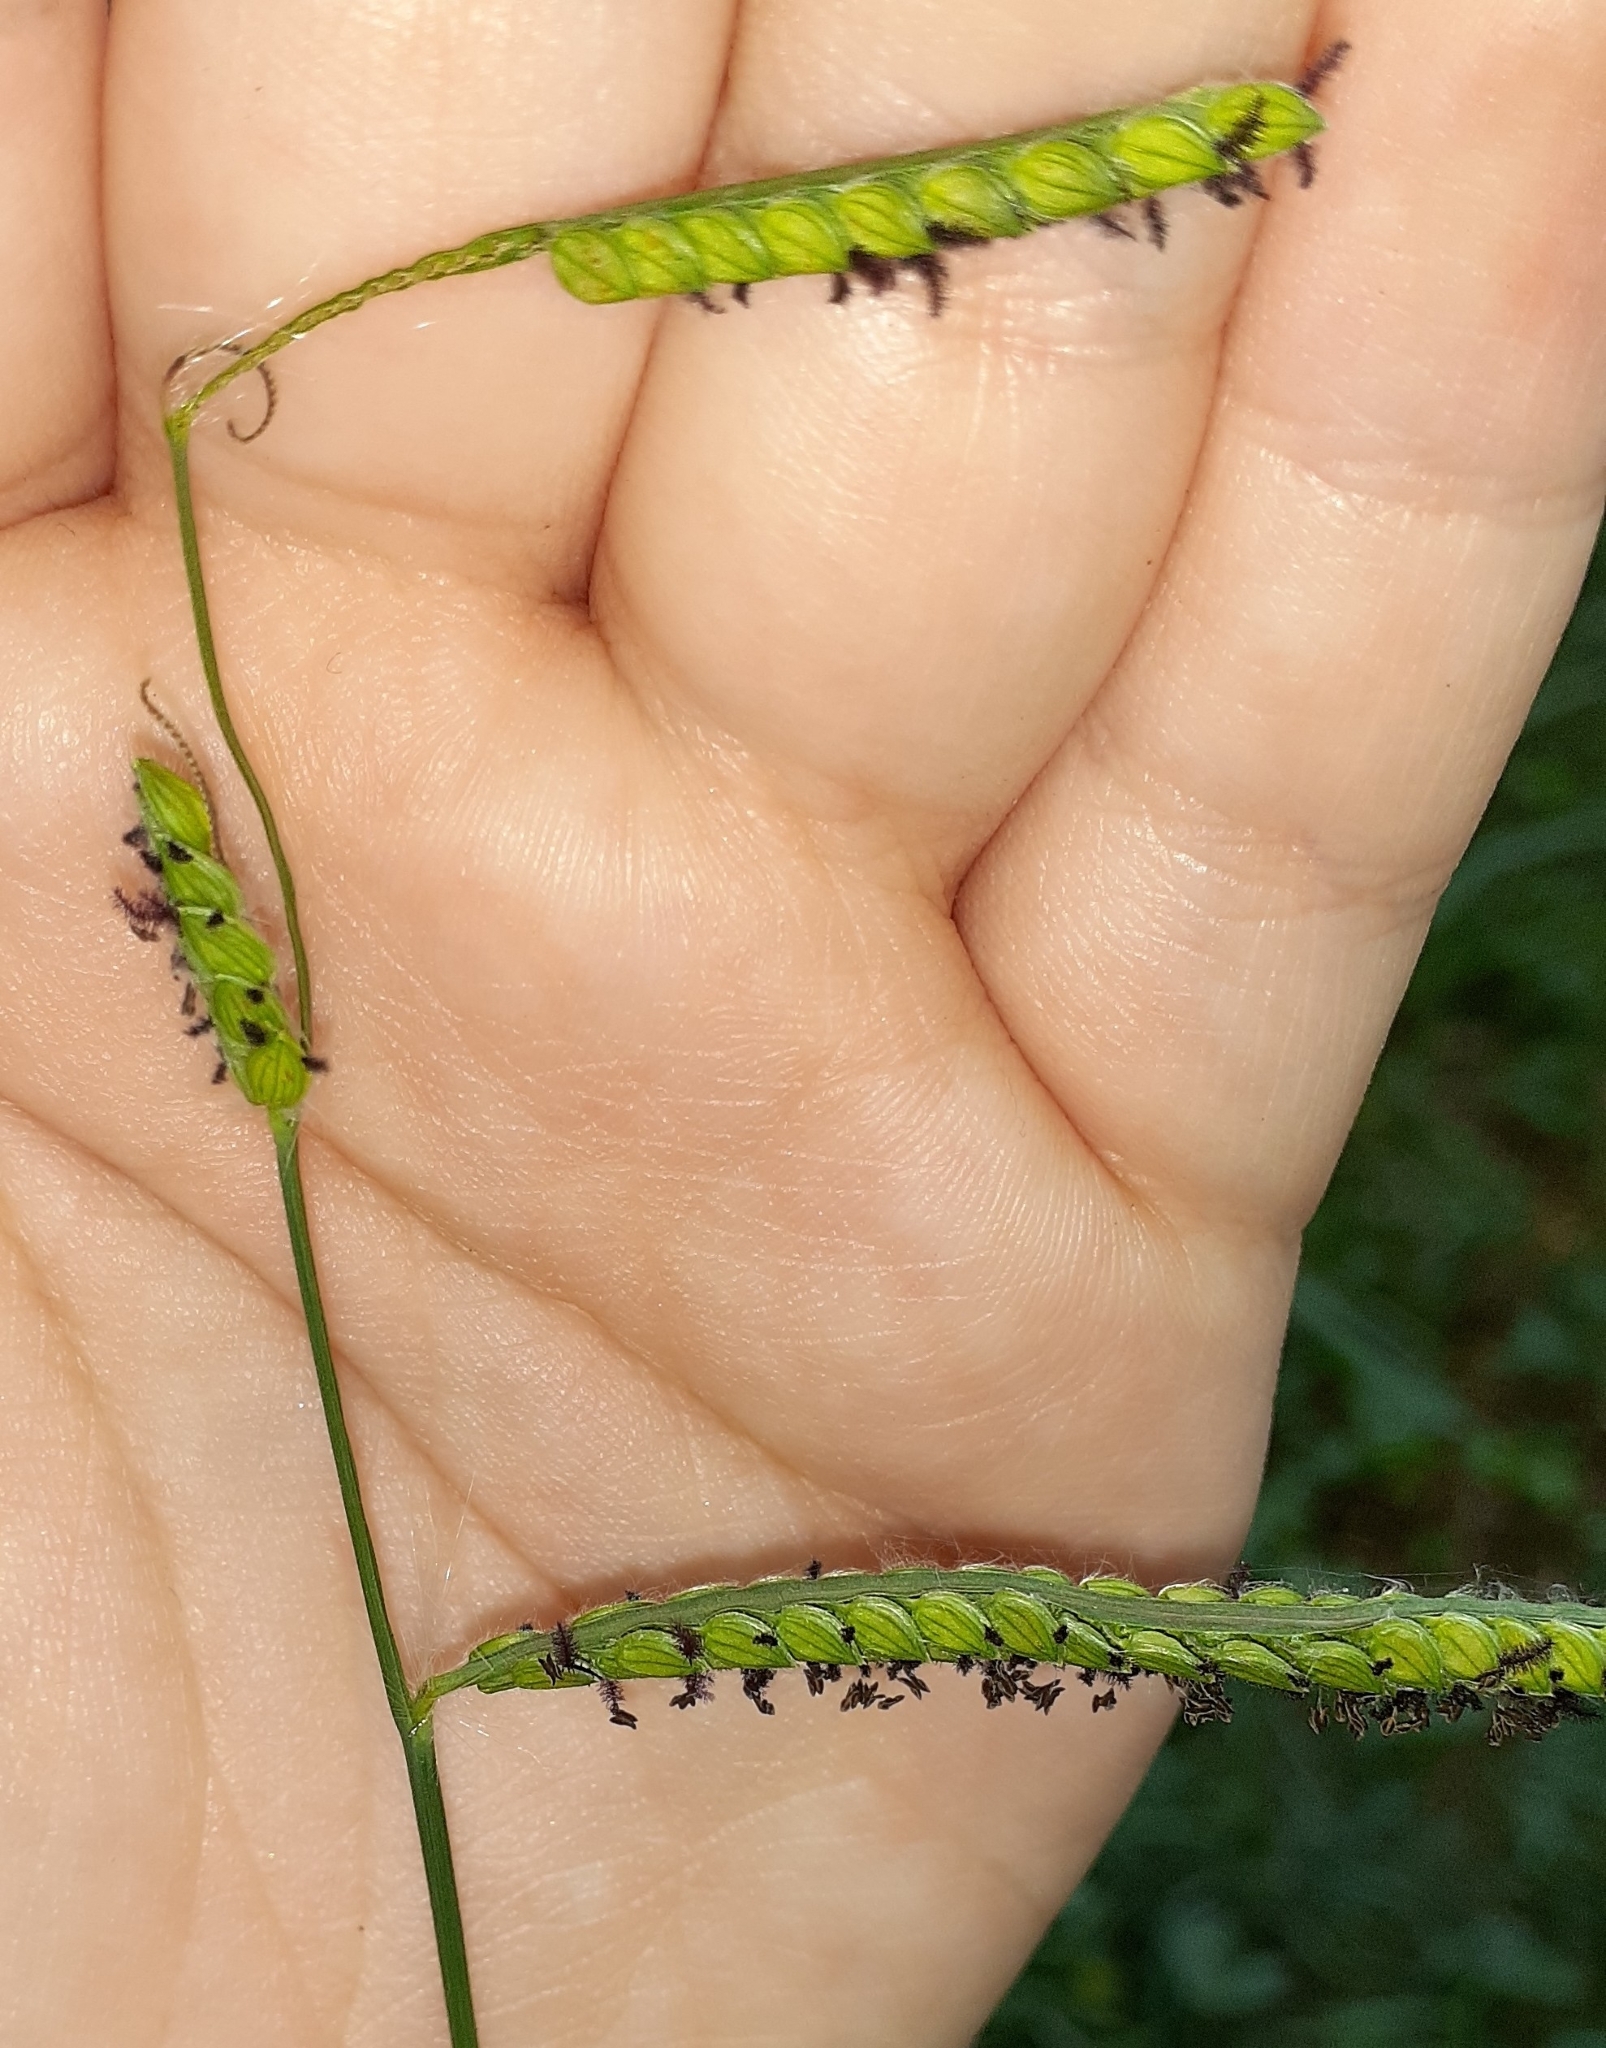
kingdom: Plantae
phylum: Tracheophyta
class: Liliopsida
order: Poales
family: Poaceae
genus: Paspalum
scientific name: Paspalum dilatatum
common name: Dallisgrass
